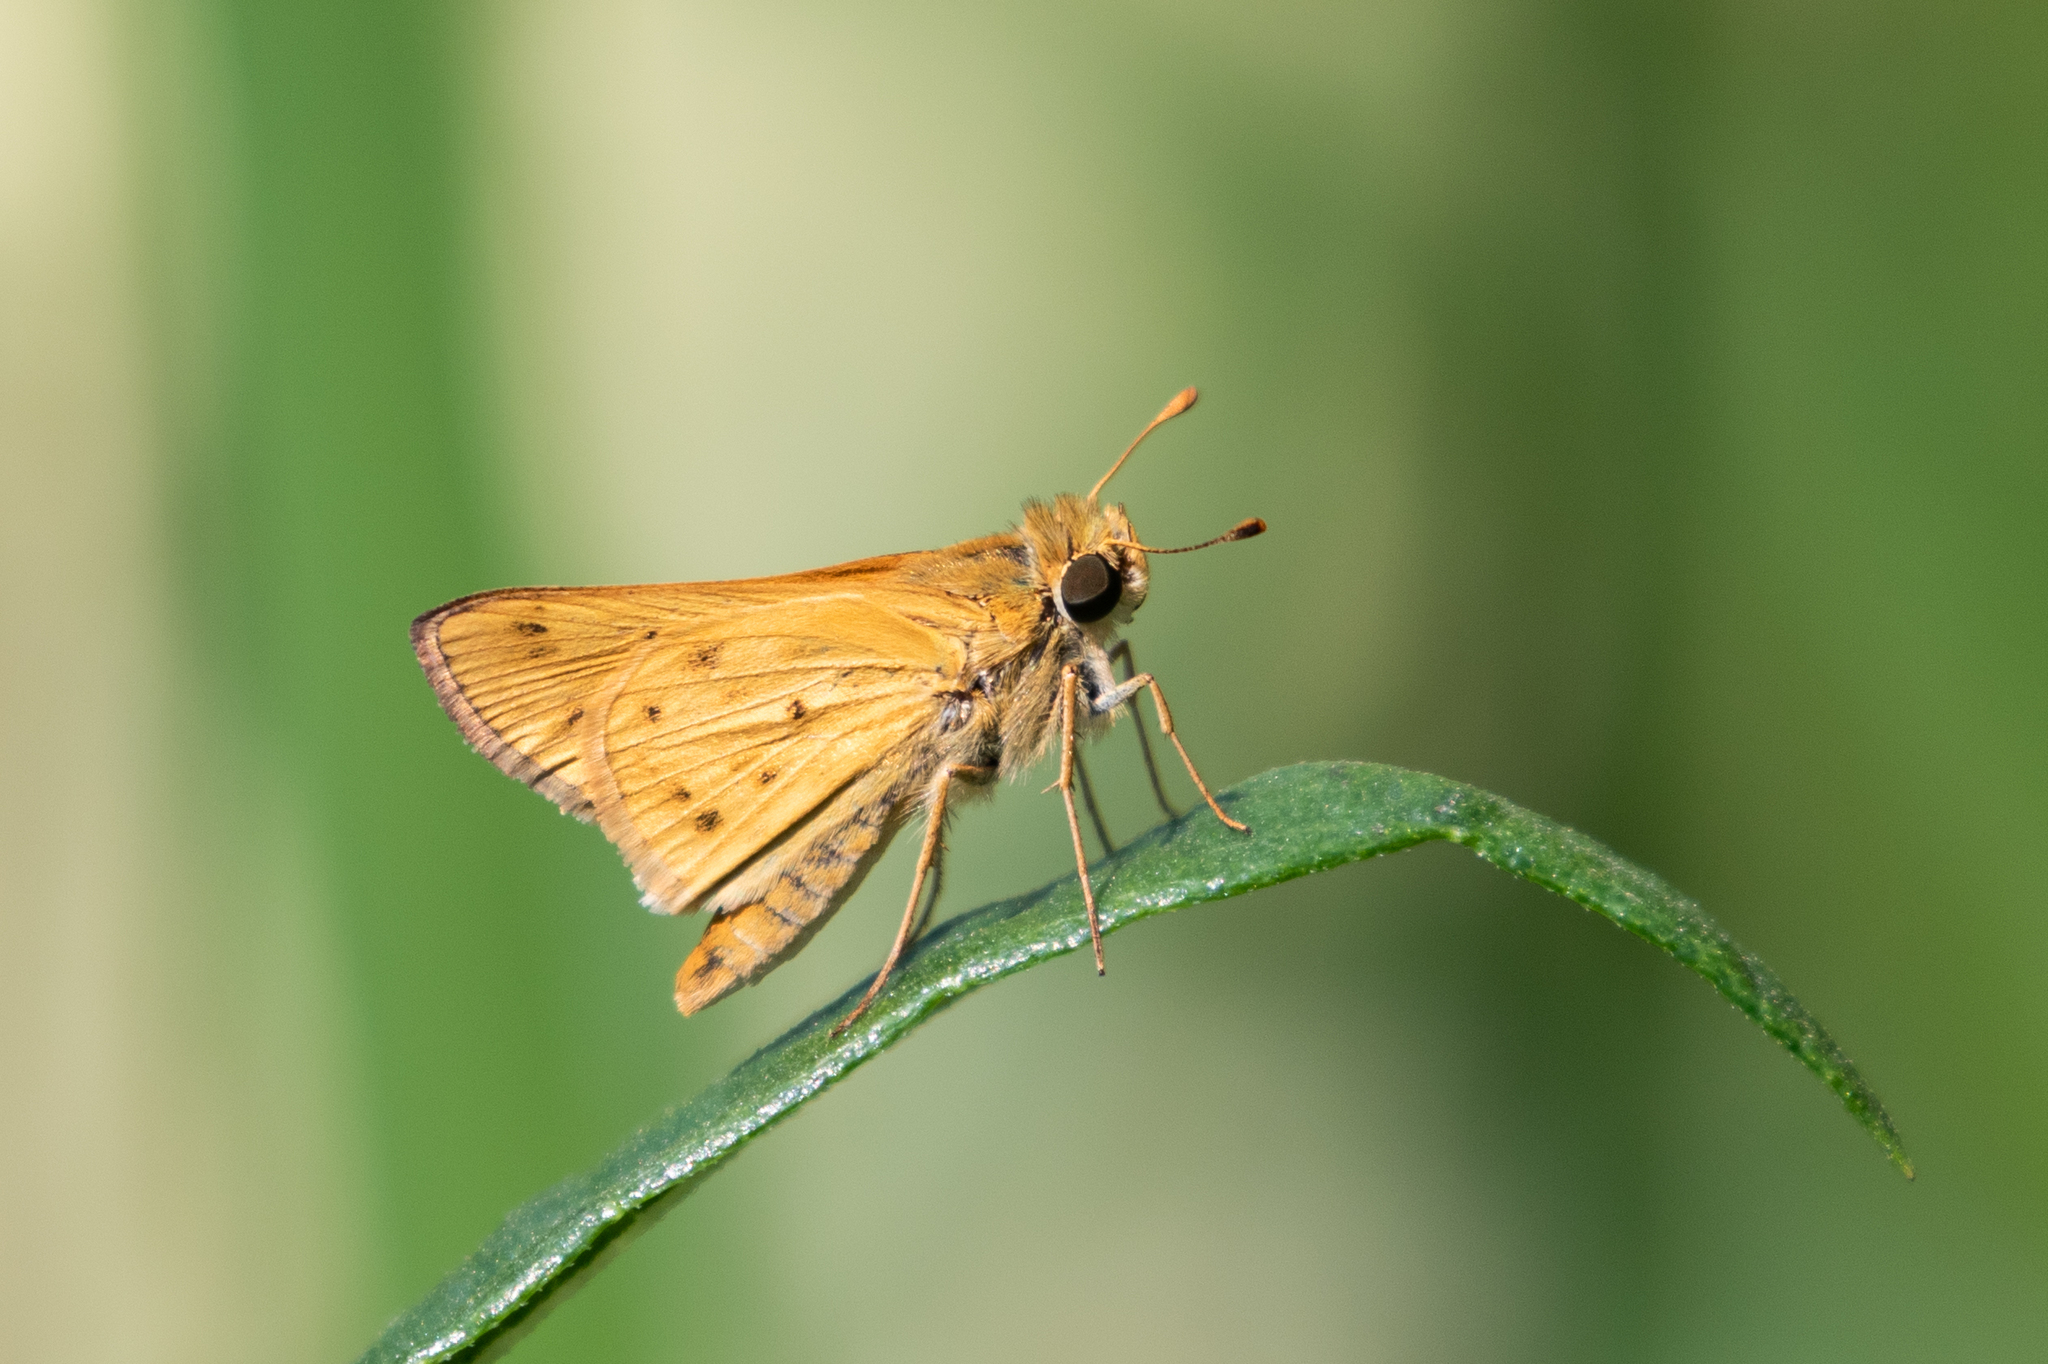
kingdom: Animalia
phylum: Arthropoda
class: Insecta
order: Lepidoptera
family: Hesperiidae
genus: Hylephila
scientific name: Hylephila phyleus
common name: Fiery skipper
